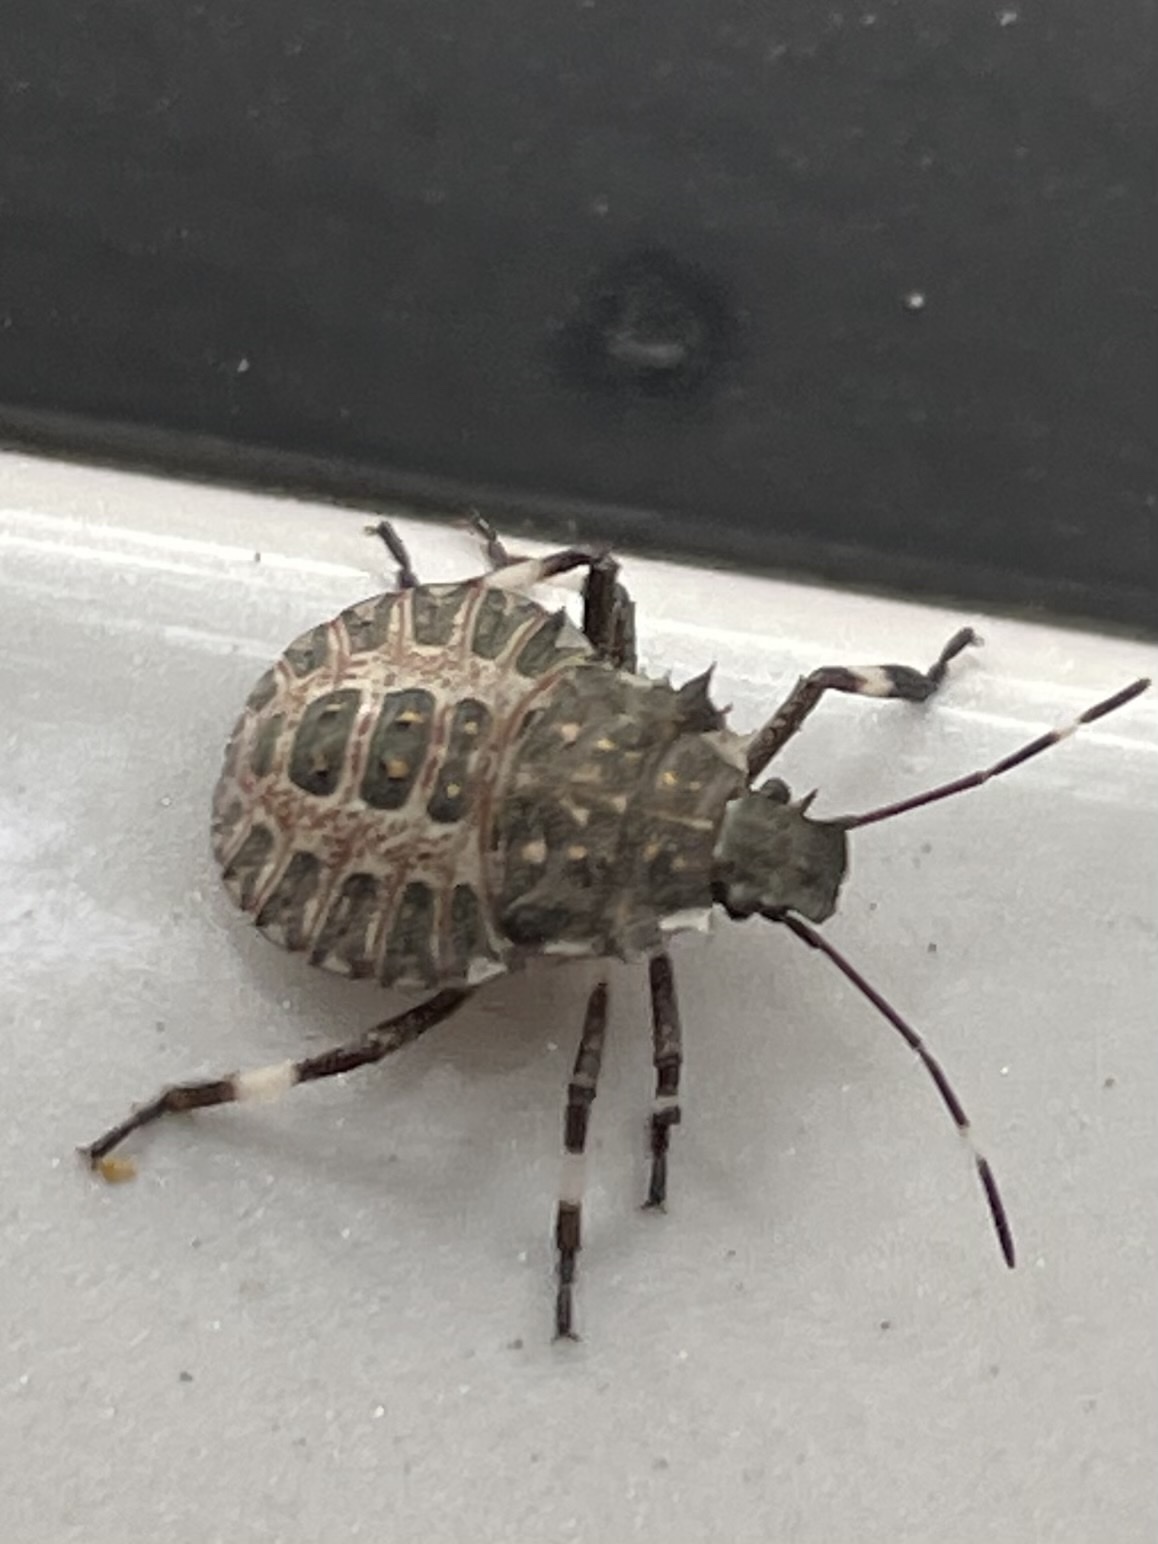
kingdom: Animalia
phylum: Arthropoda
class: Insecta
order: Hemiptera
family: Pentatomidae
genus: Halyomorpha
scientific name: Halyomorpha halys
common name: Brown marmorated stink bug
